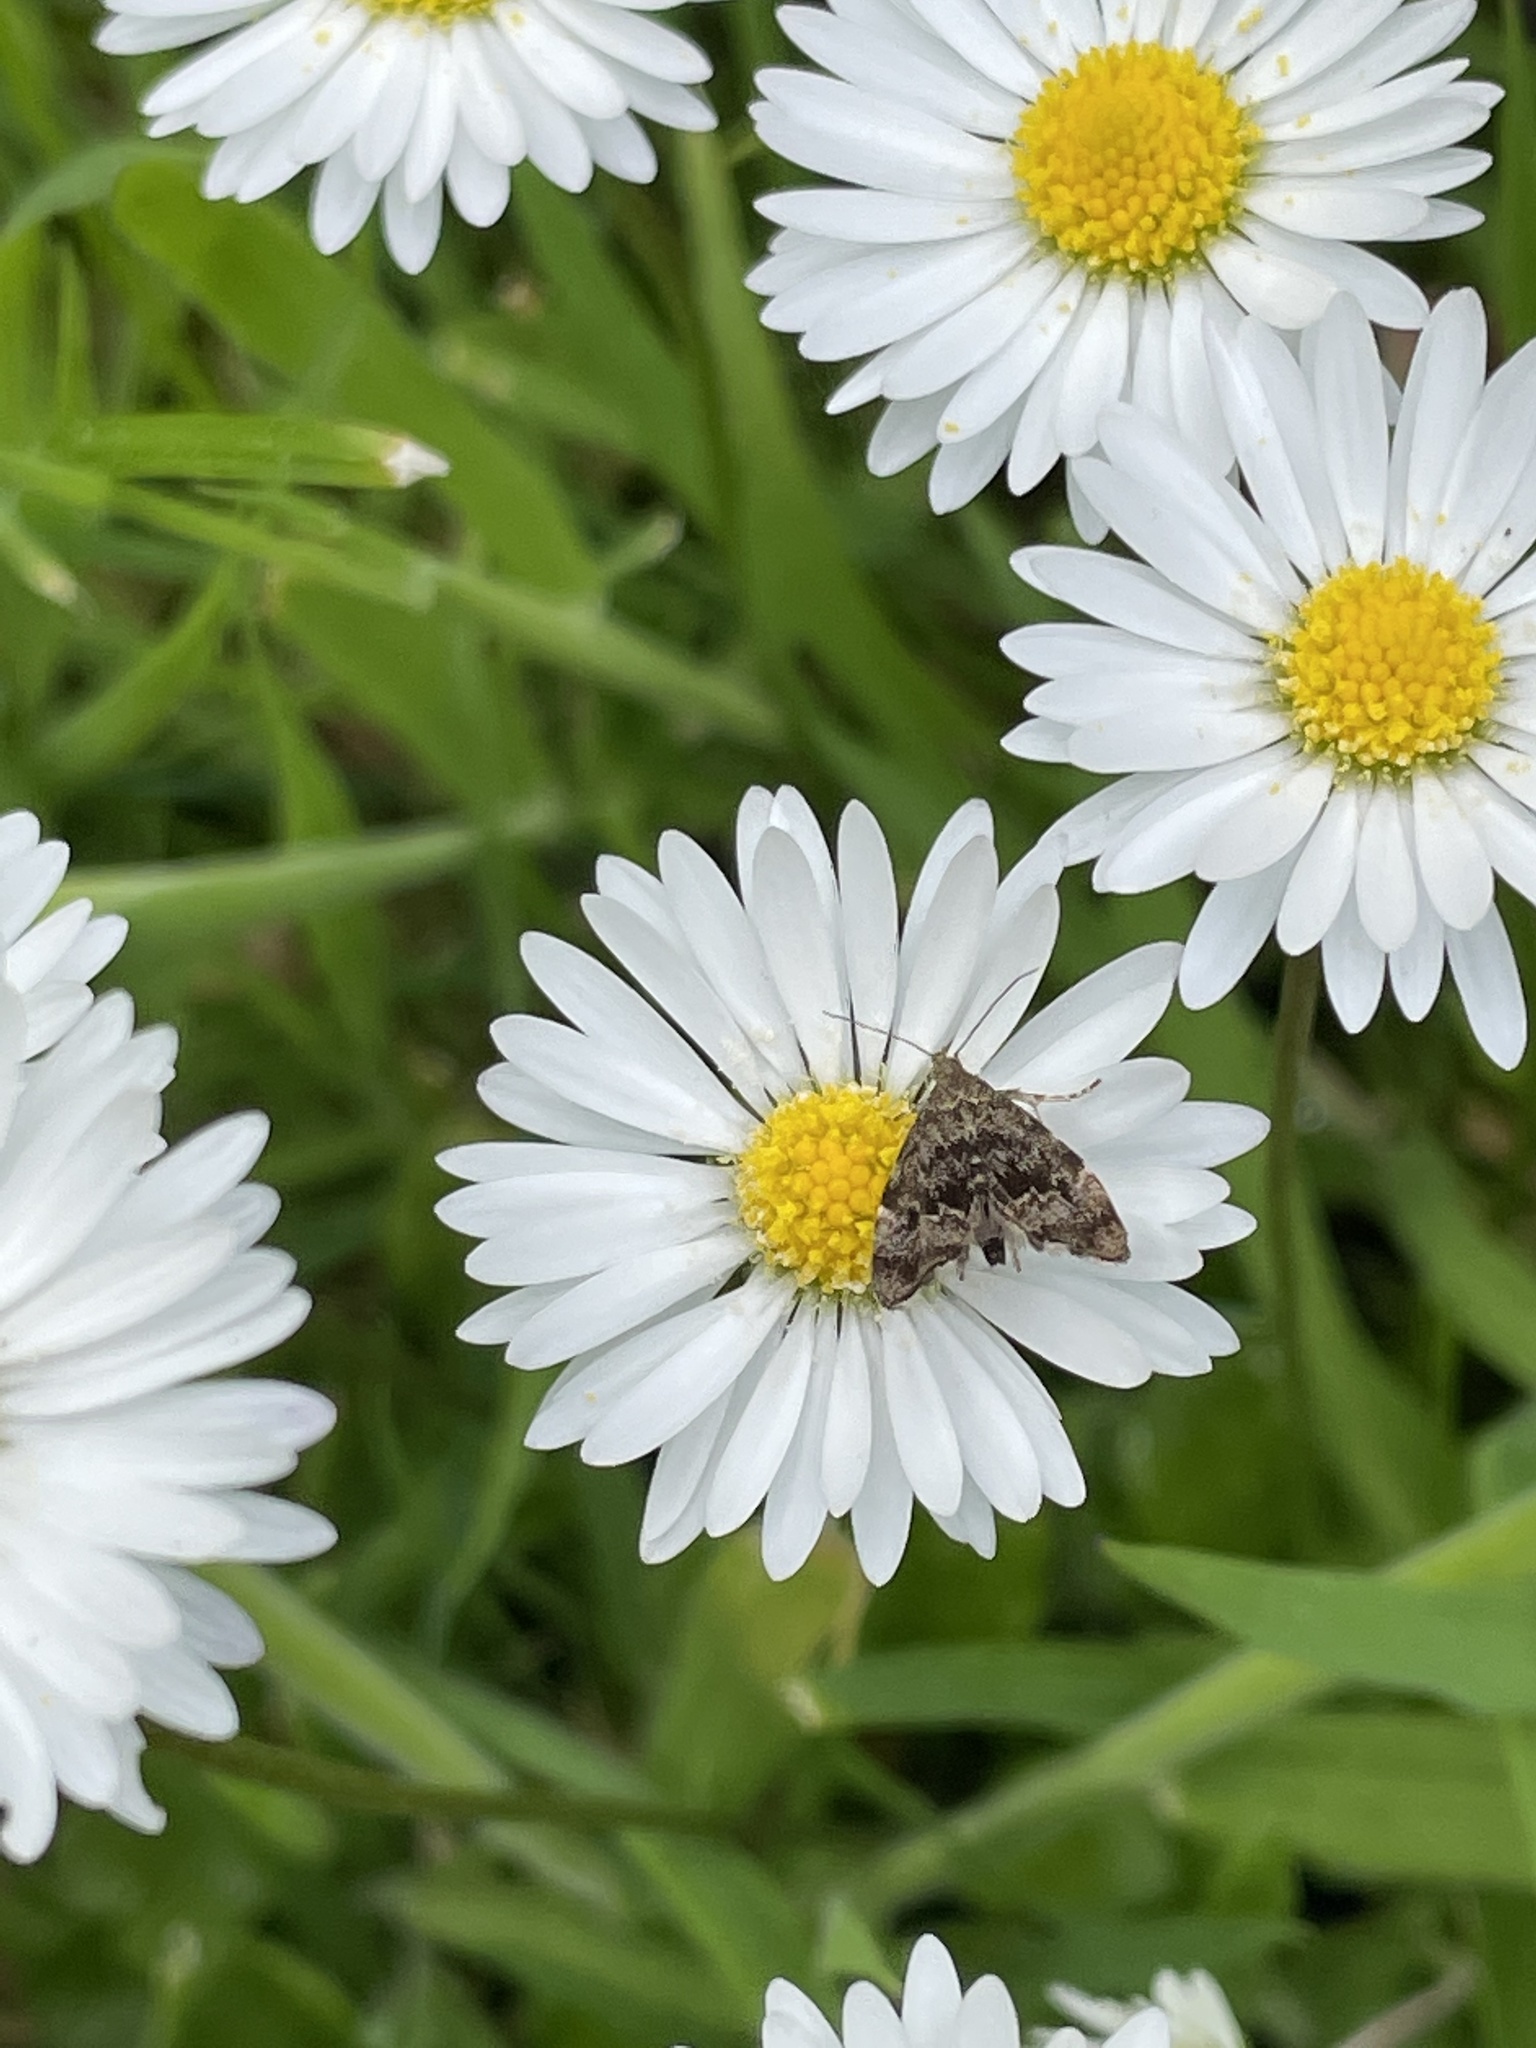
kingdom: Animalia
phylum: Arthropoda
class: Insecta
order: Lepidoptera
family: Choreutidae
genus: Anthophila
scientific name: Anthophila fabriciana
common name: Nettle-tap
